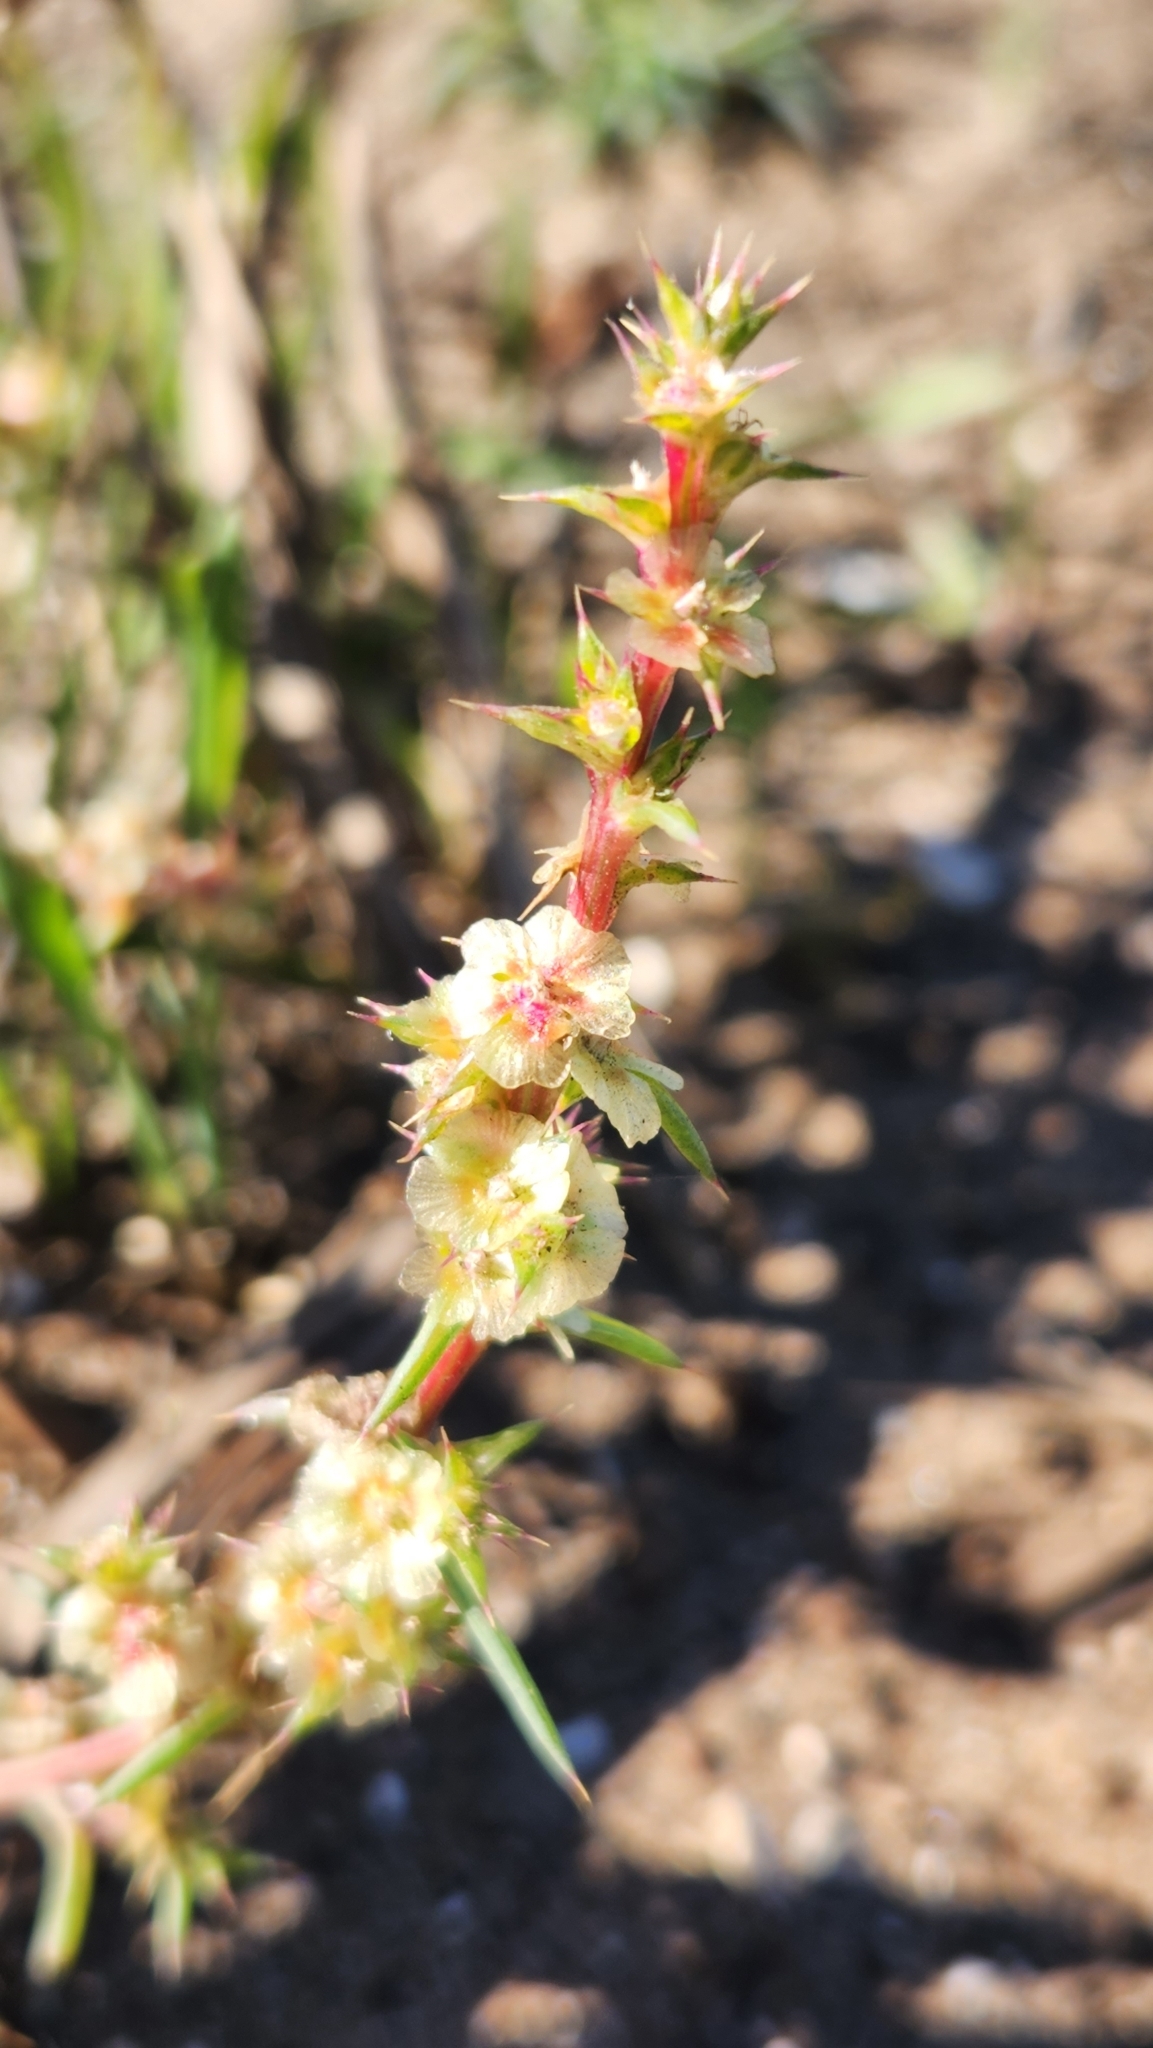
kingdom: Plantae
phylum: Tracheophyta
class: Magnoliopsida
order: Caryophyllales
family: Amaranthaceae
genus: Salsola
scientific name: Salsola australis
